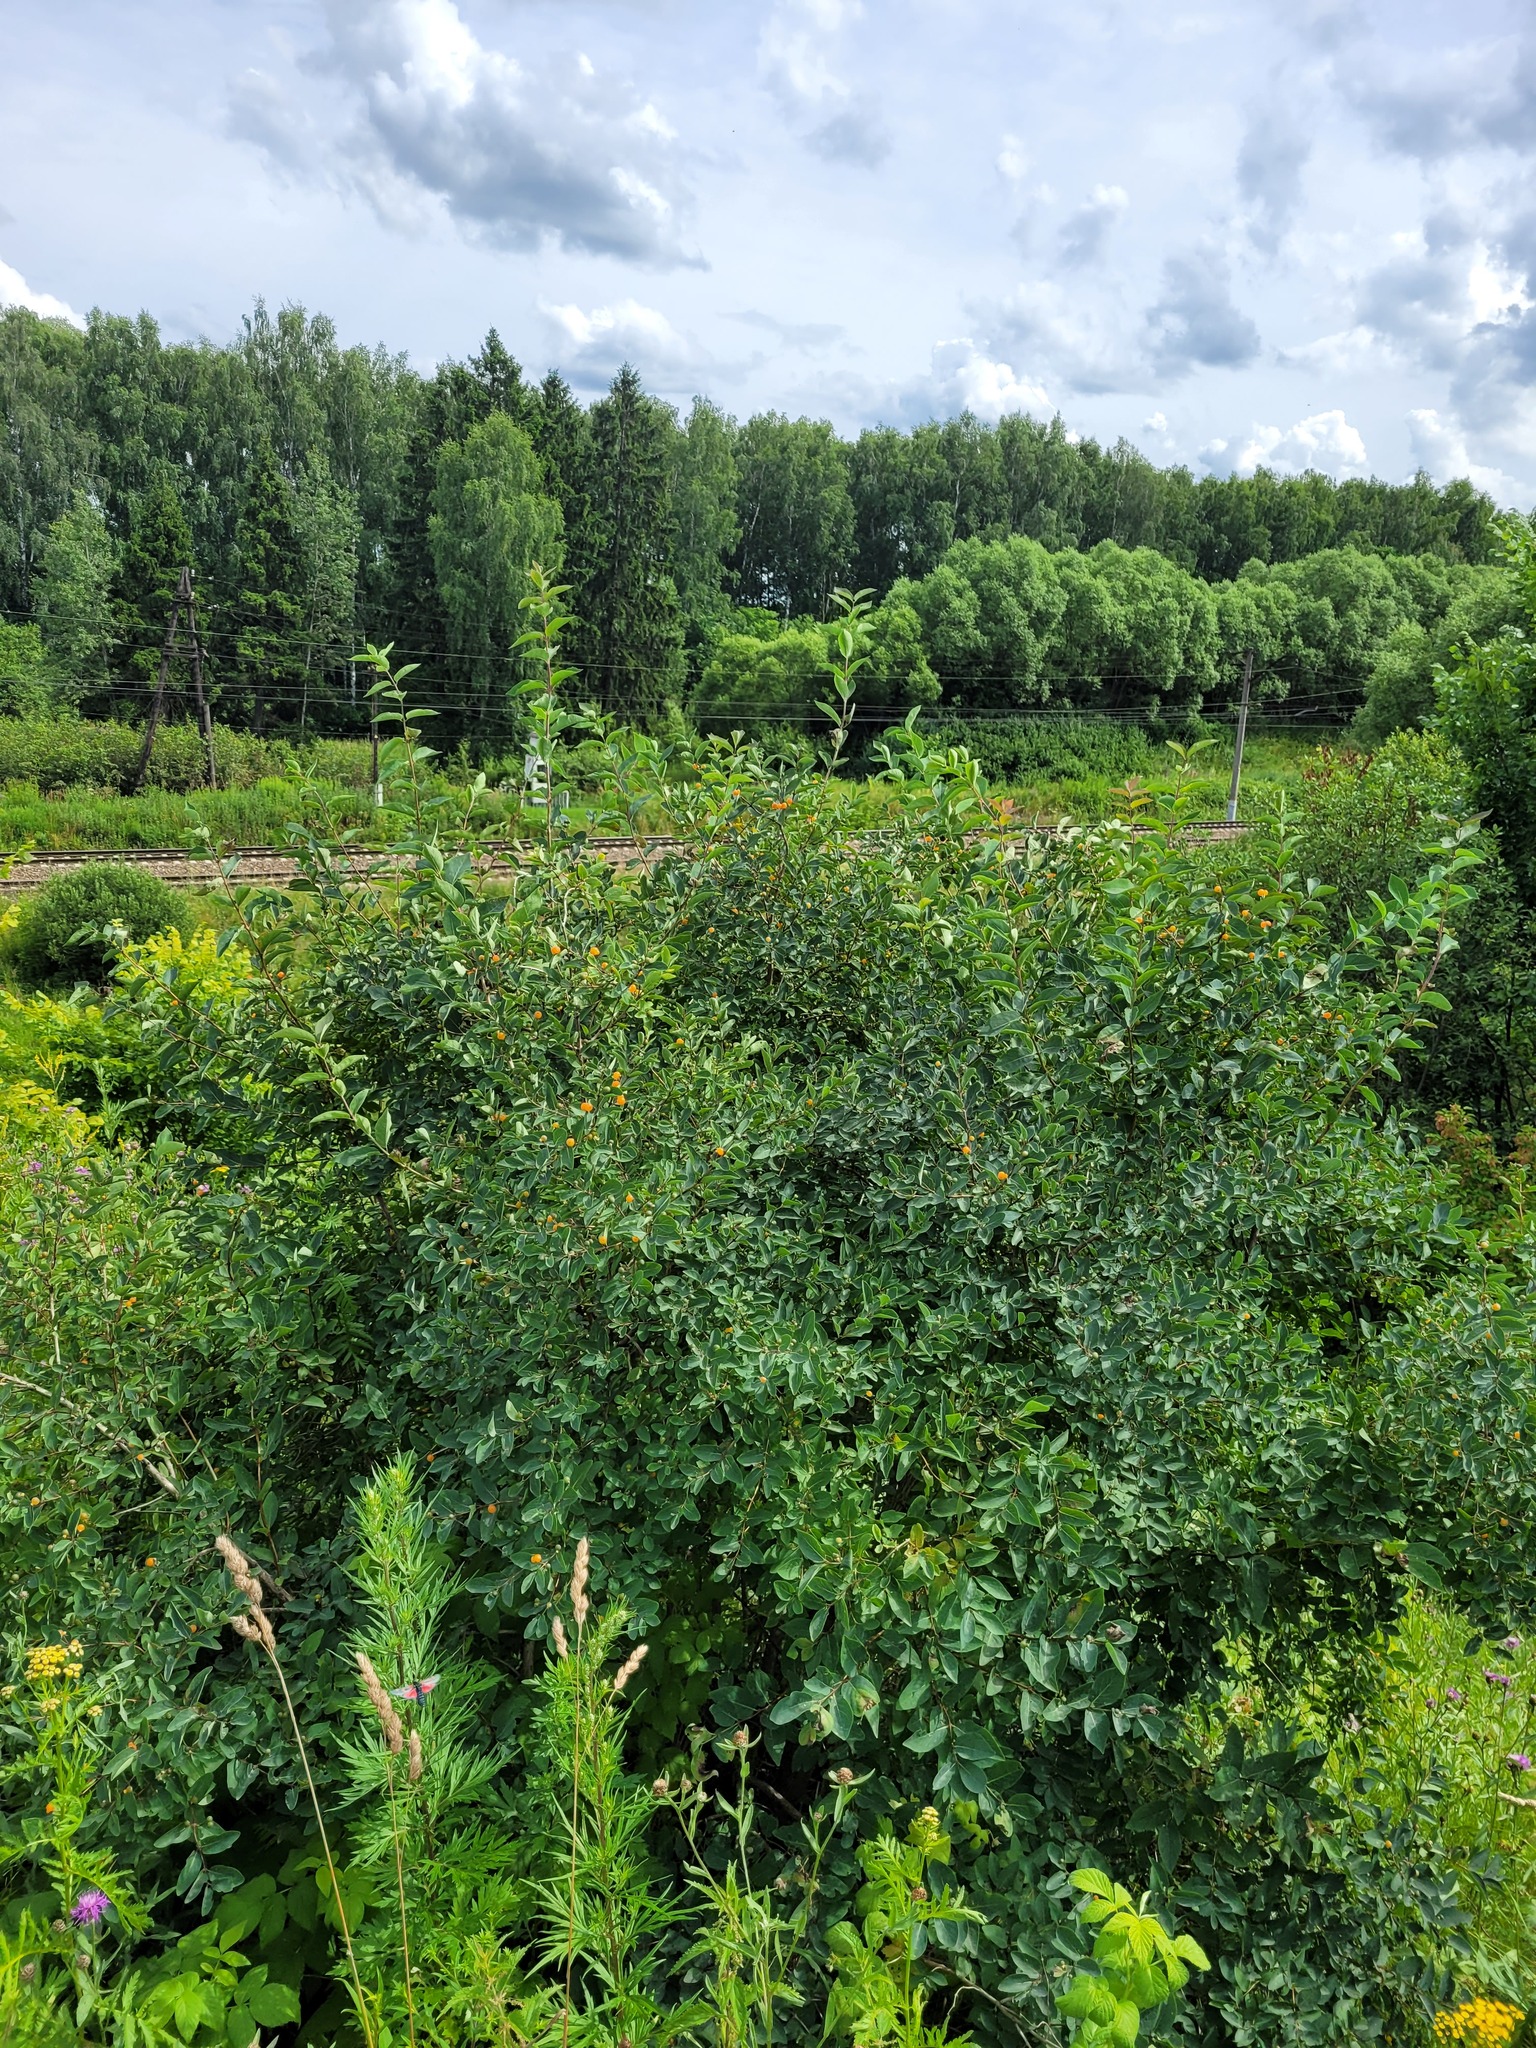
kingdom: Plantae
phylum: Tracheophyta
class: Magnoliopsida
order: Dipsacales
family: Caprifoliaceae
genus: Lonicera
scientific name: Lonicera tatarica
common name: Tatarian honeysuckle
